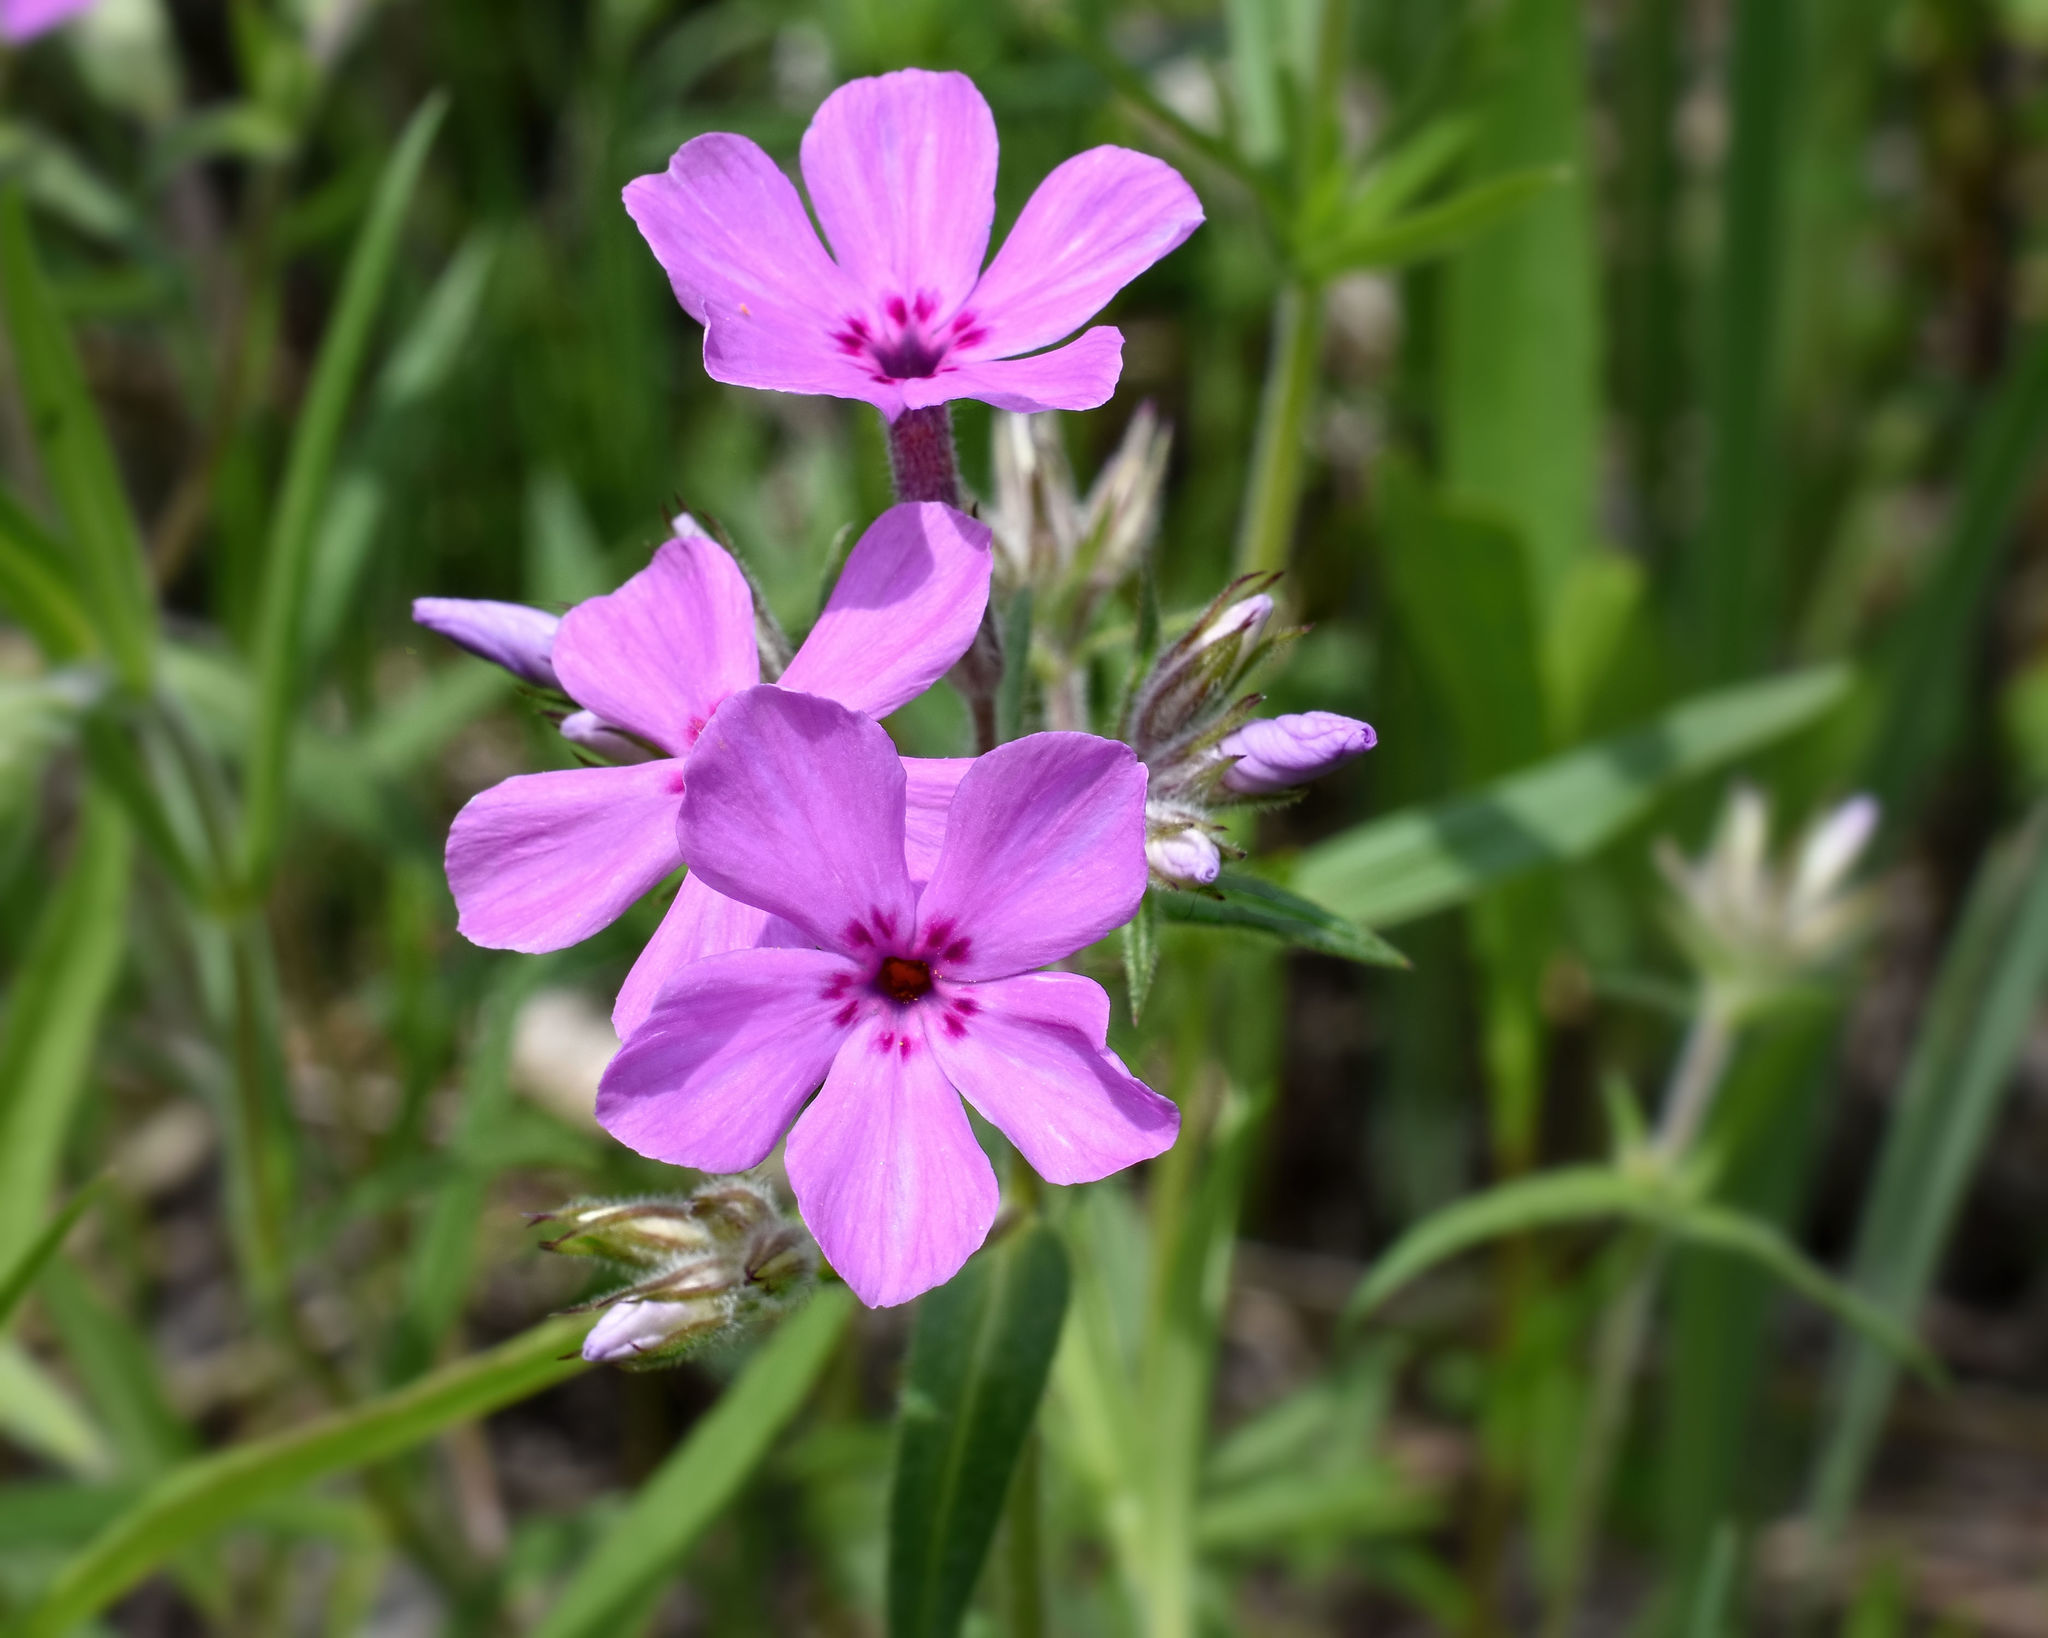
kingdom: Plantae
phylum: Tracheophyta
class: Magnoliopsida
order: Ericales
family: Polemoniaceae
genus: Phlox
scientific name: Phlox pilosa
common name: Prairie phlox
